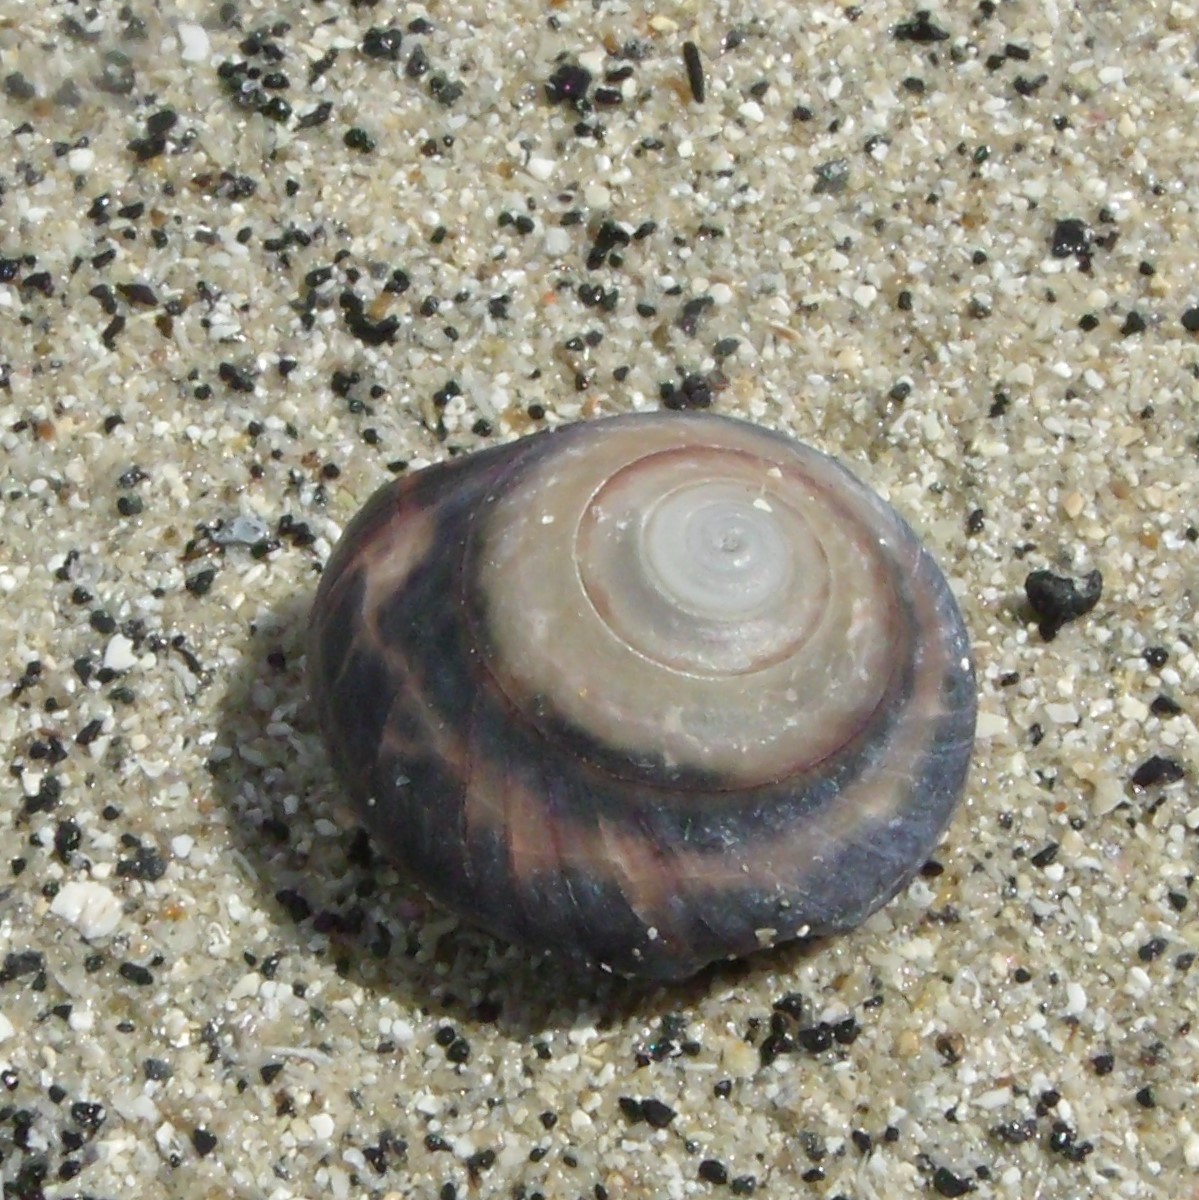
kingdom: Animalia
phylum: Mollusca
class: Gastropoda
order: Trochida
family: Trochidae
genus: Zethalia
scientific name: Zethalia zelandica
